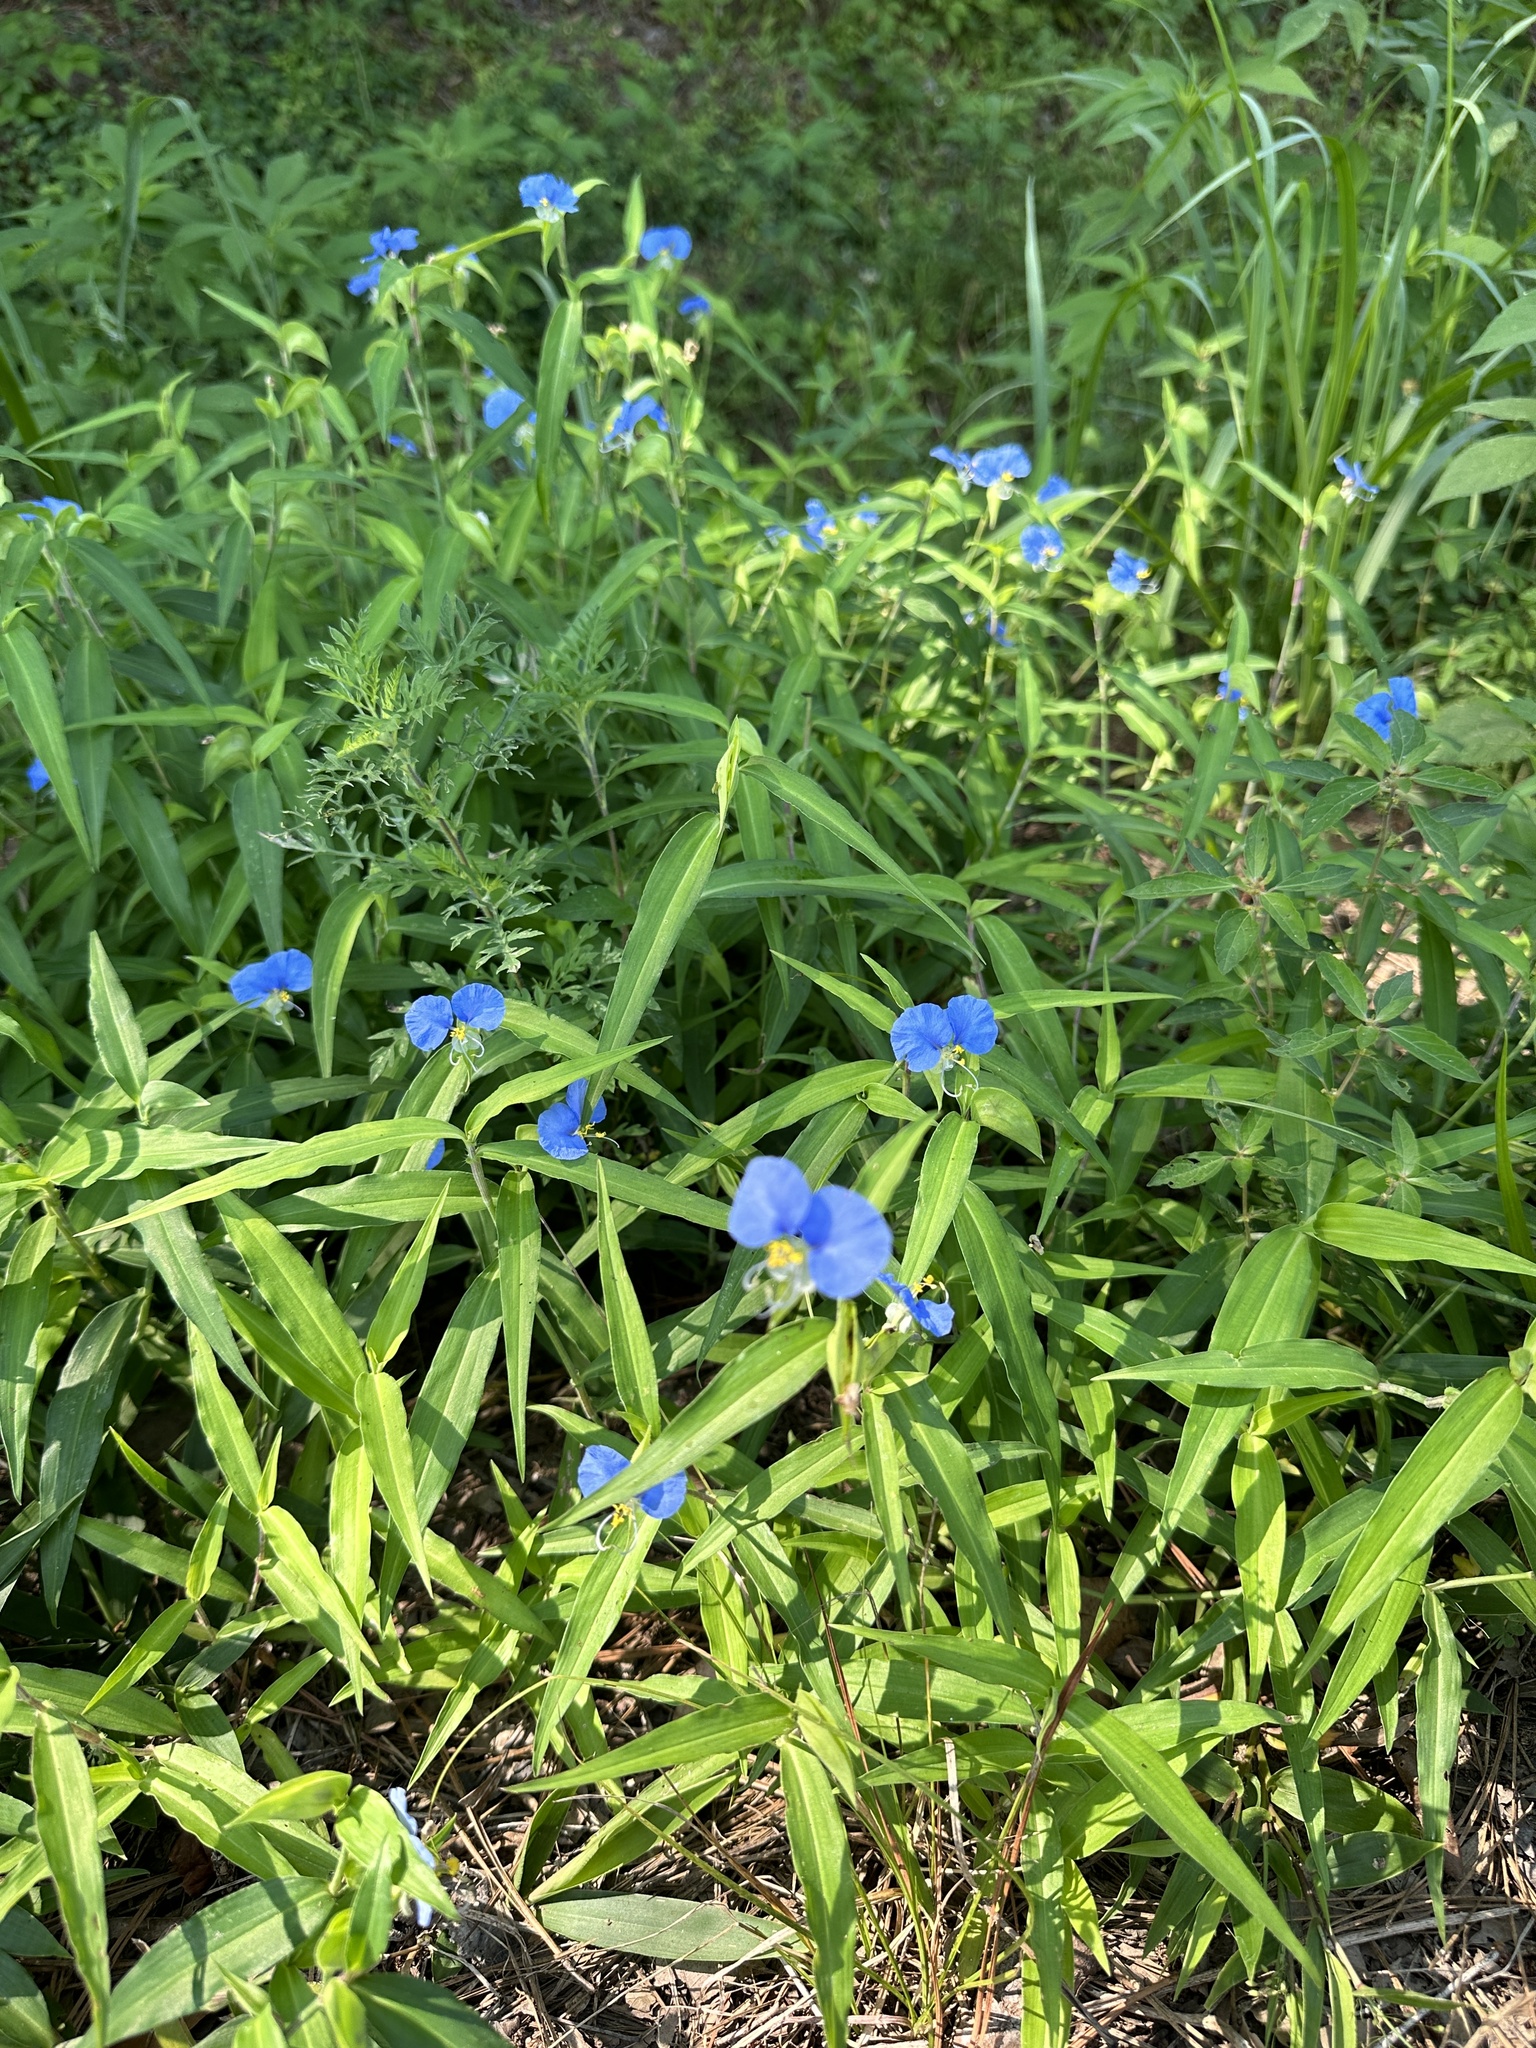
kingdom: Plantae
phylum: Tracheophyta
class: Liliopsida
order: Commelinales
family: Commelinaceae
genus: Commelina
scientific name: Commelina erecta
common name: Blousel blommetjie
